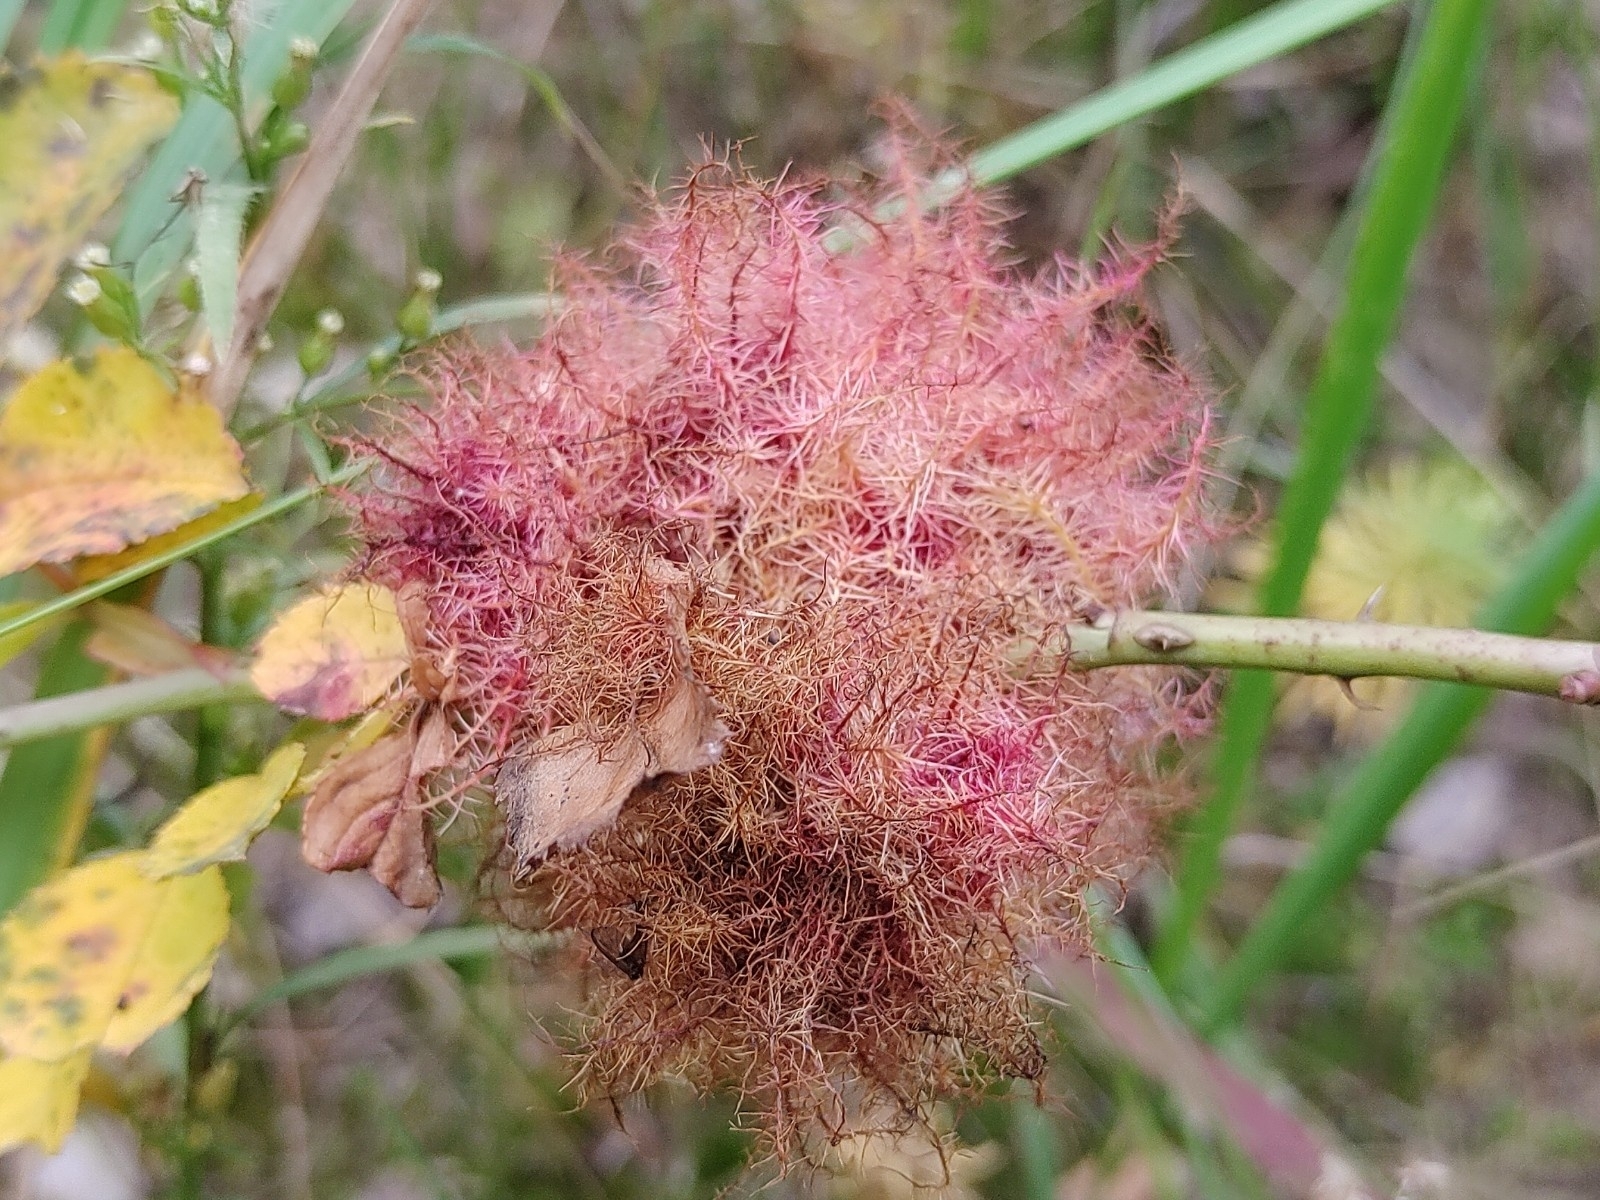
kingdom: Animalia
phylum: Arthropoda
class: Insecta
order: Hymenoptera
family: Cynipidae
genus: Diplolepis
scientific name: Diplolepis rosae
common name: Bedeguar gall
